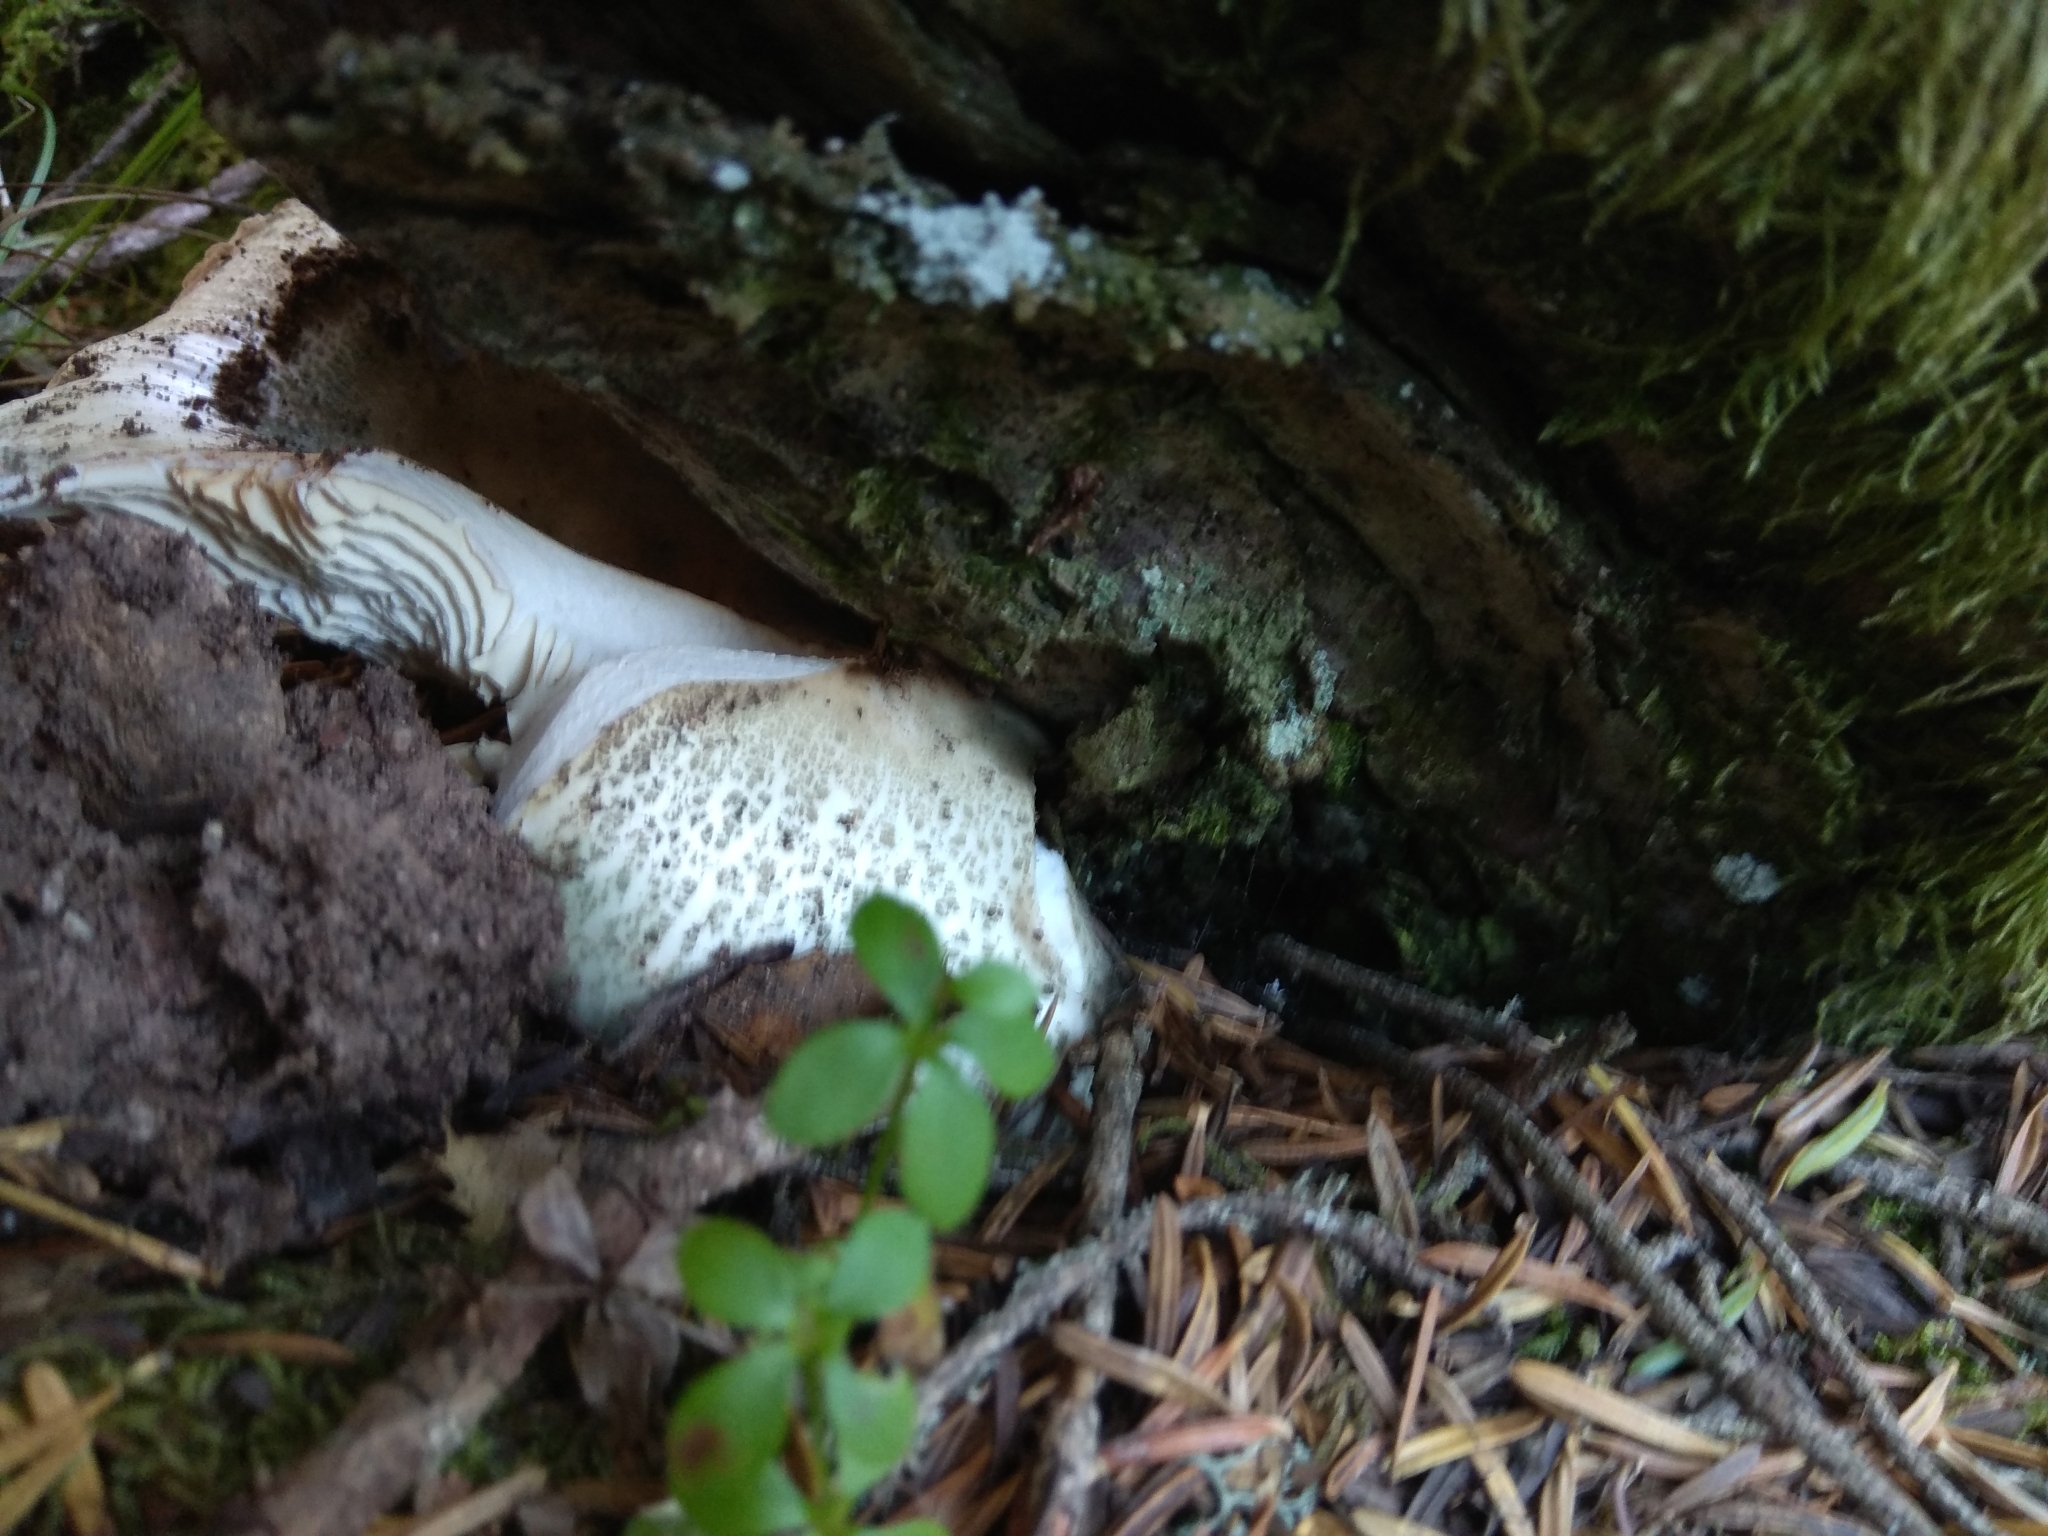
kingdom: Fungi
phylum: Basidiomycota
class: Agaricomycetes
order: Russulales
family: Russulaceae
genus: Russula
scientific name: Russula virescens
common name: Greencracked brittlegill
